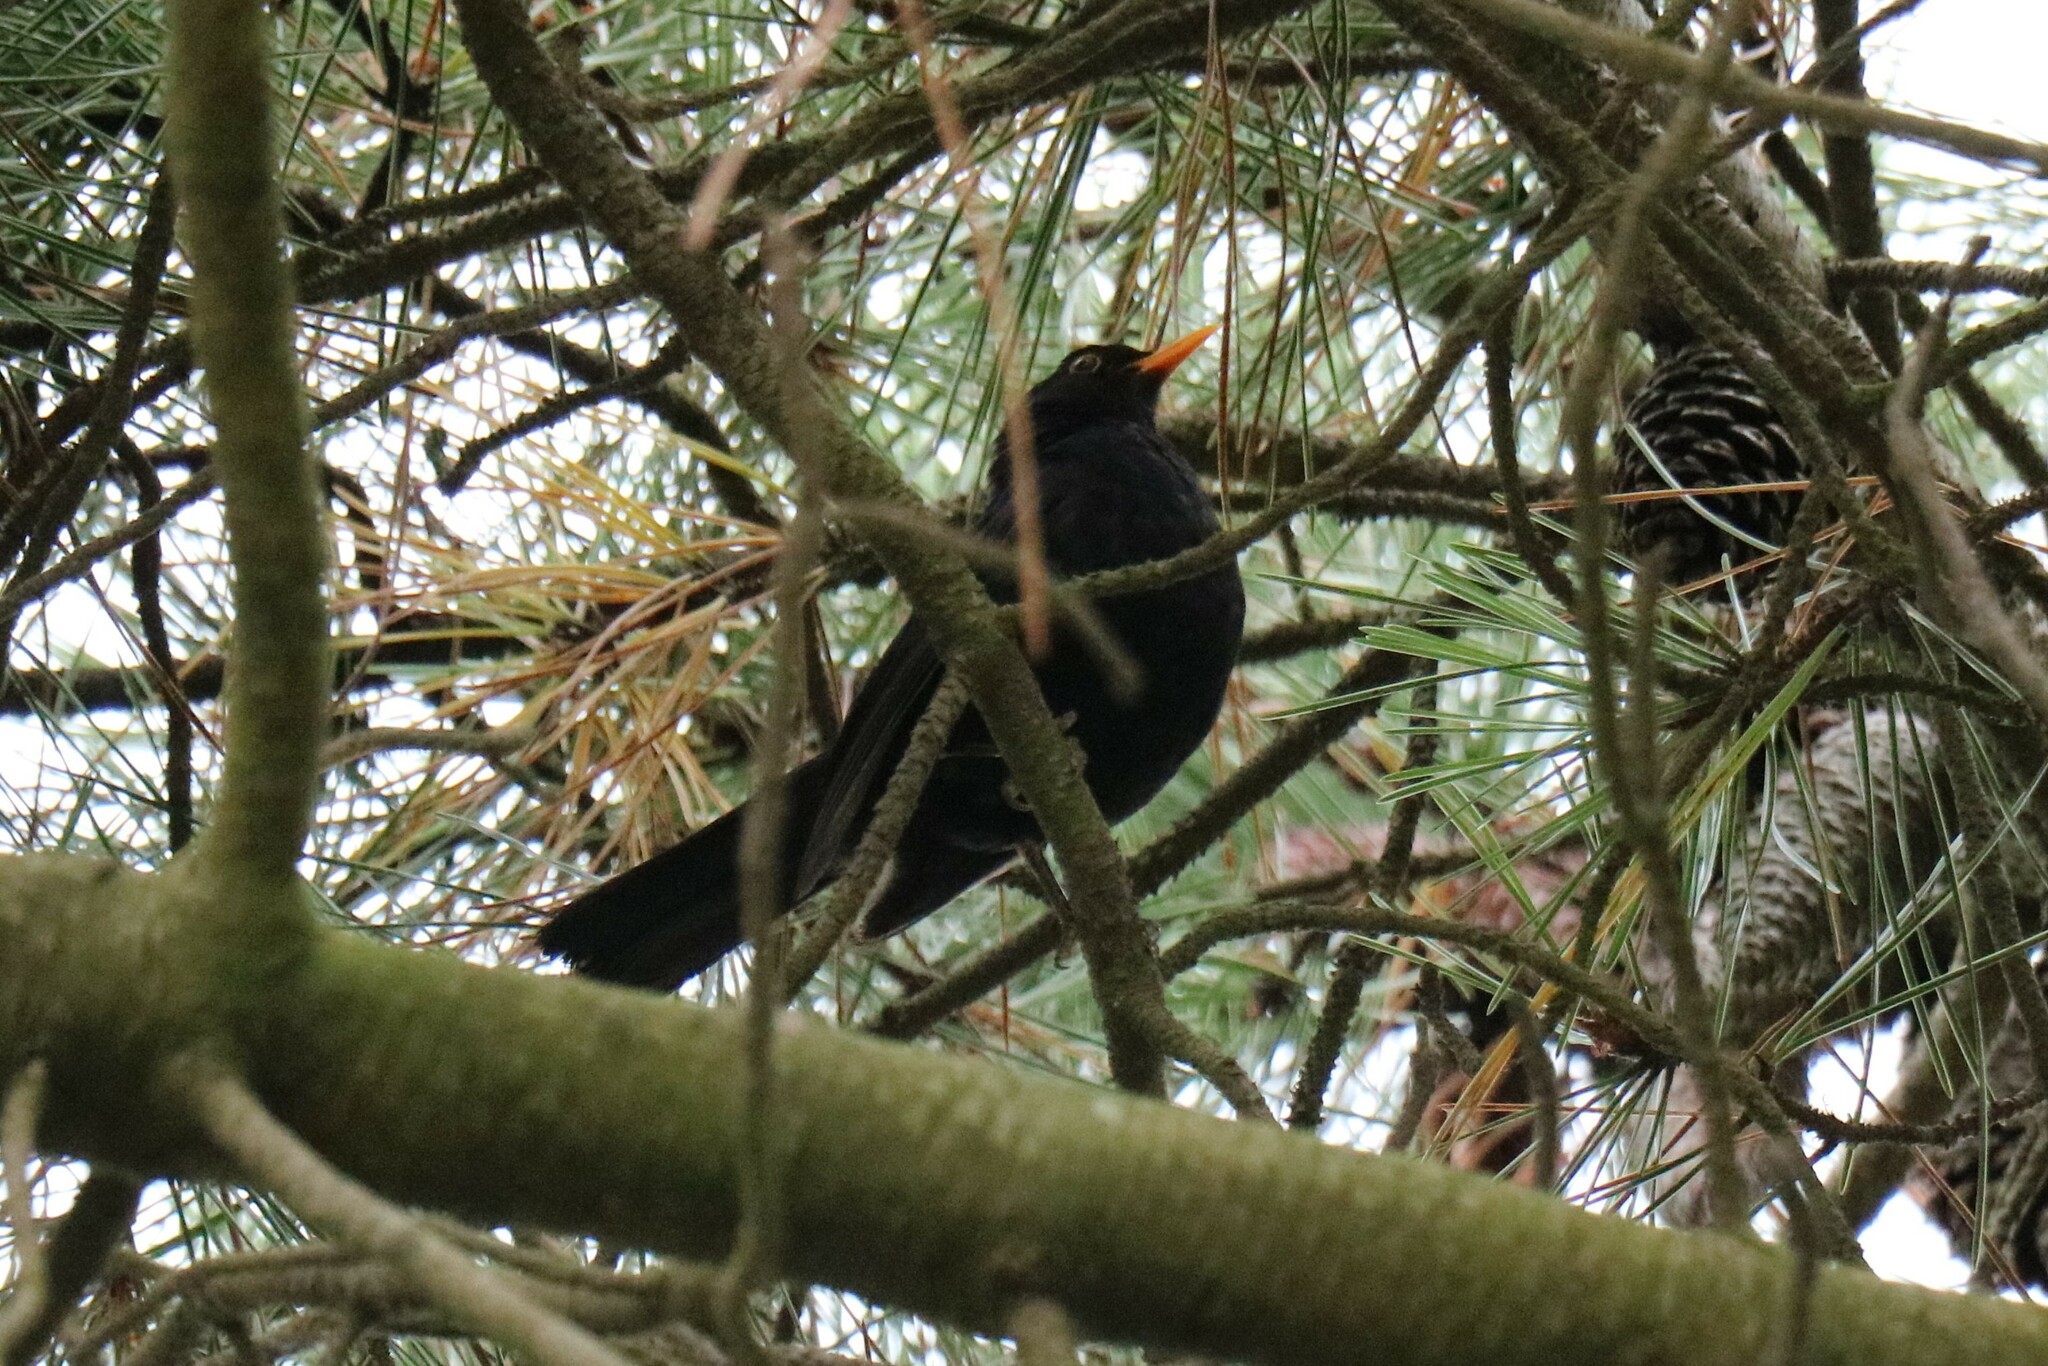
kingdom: Animalia
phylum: Chordata
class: Aves
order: Passeriformes
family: Turdidae
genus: Turdus
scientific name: Turdus merula
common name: Common blackbird
